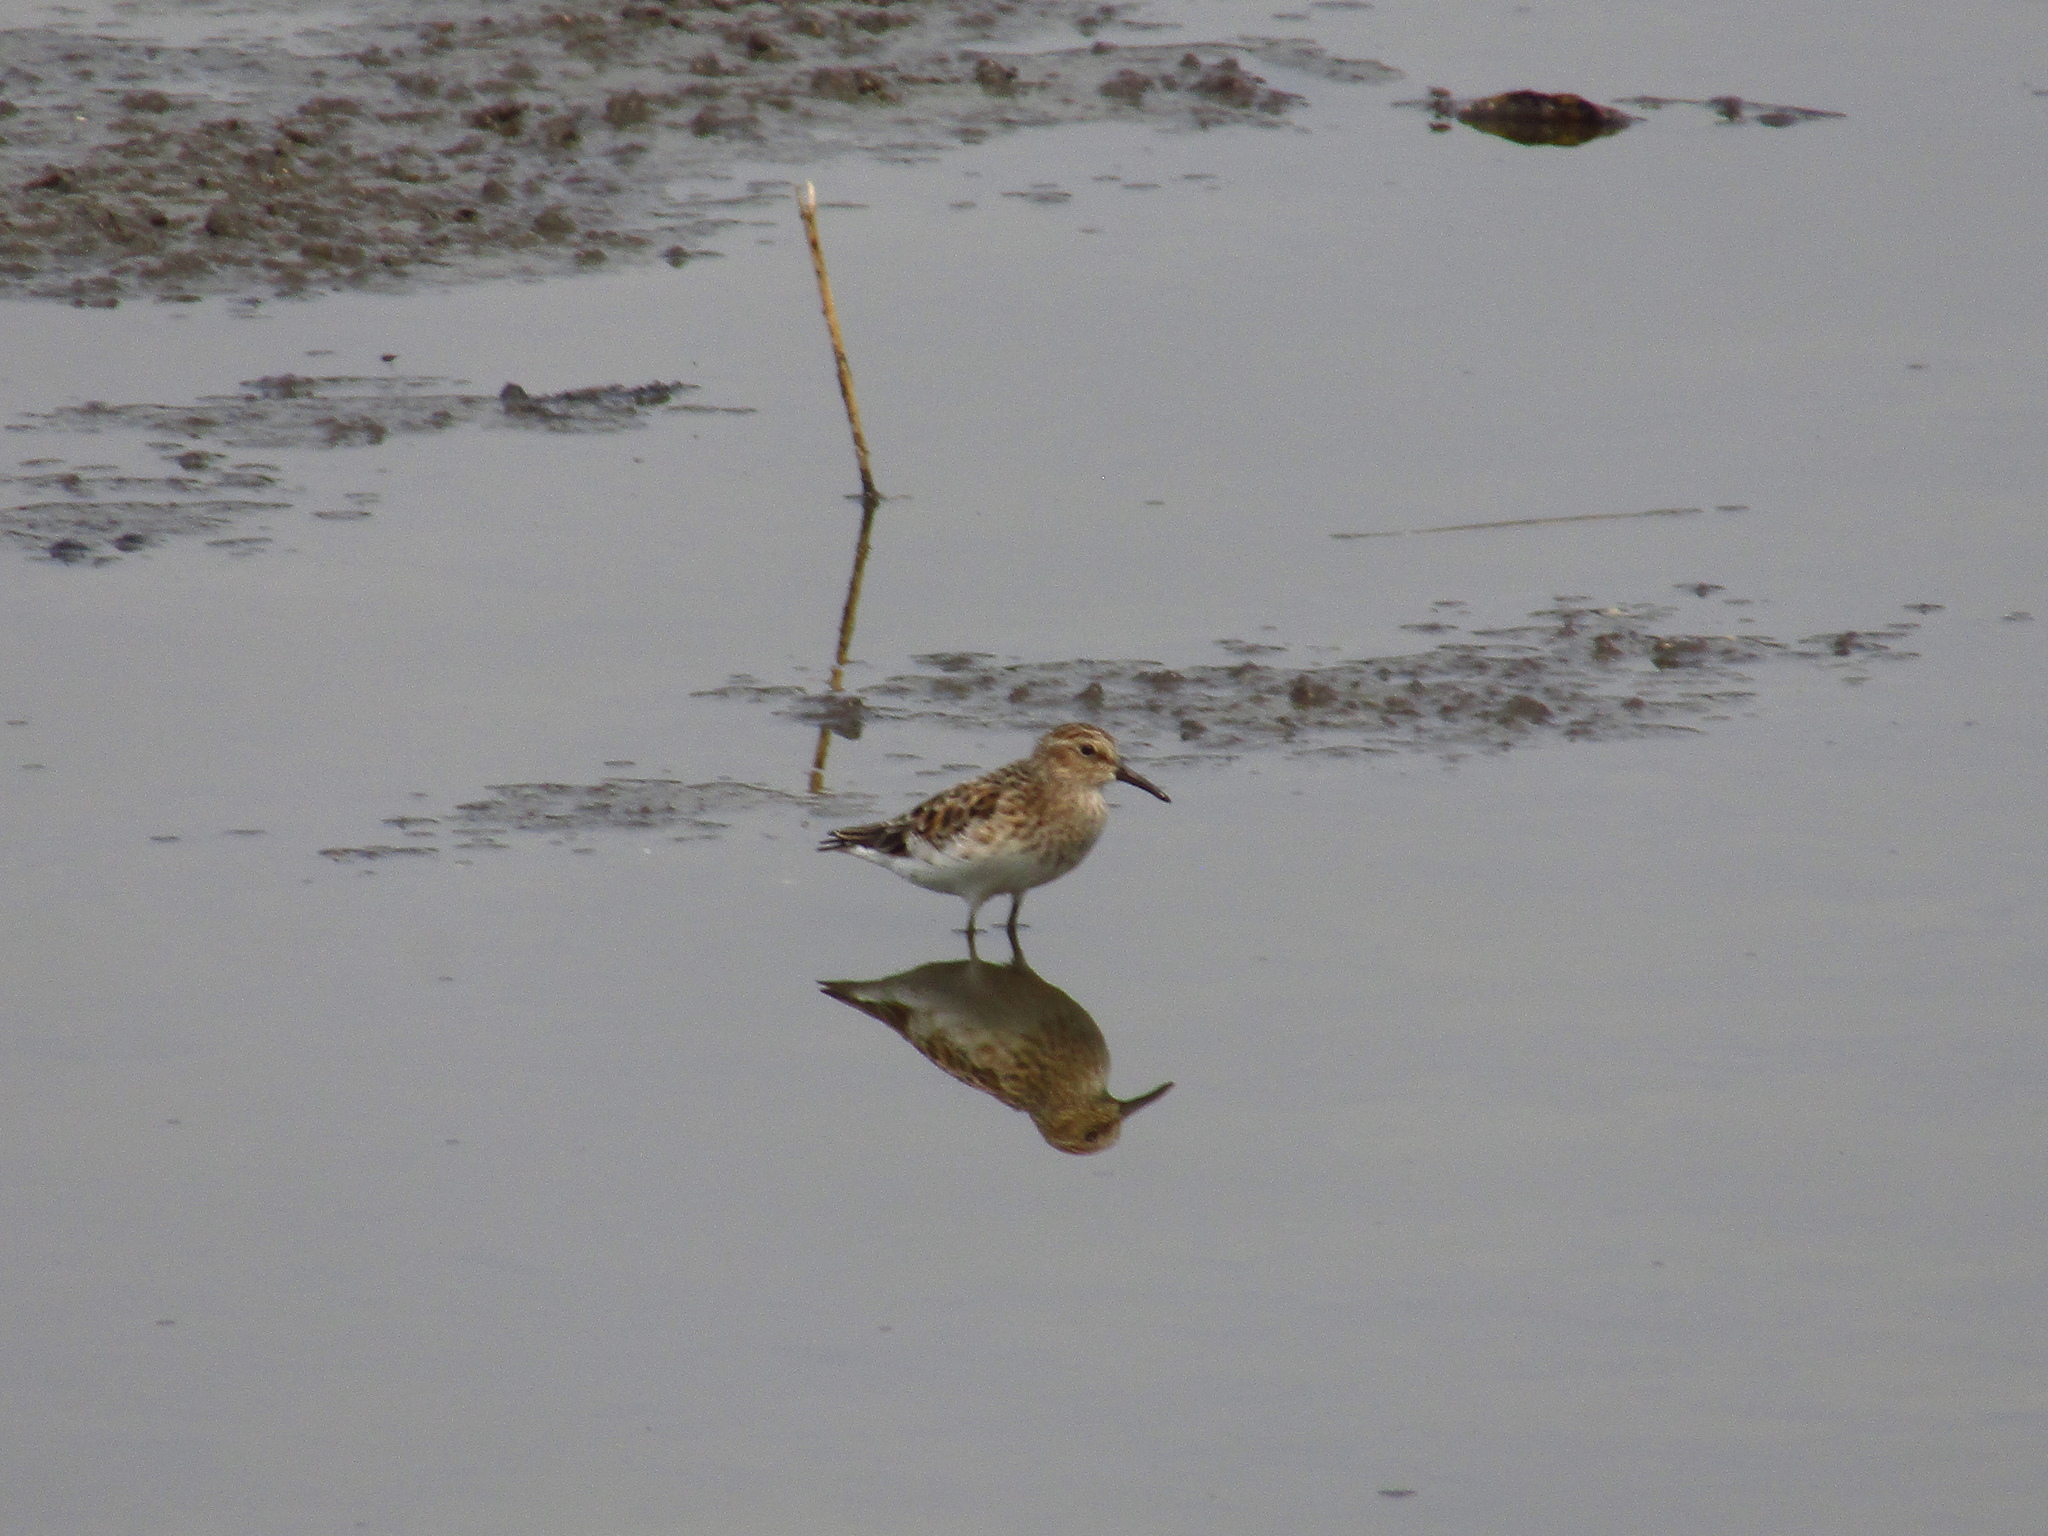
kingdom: Animalia
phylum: Chordata
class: Aves
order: Charadriiformes
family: Scolopacidae
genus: Calidris
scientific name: Calidris minutilla
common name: Least sandpiper
